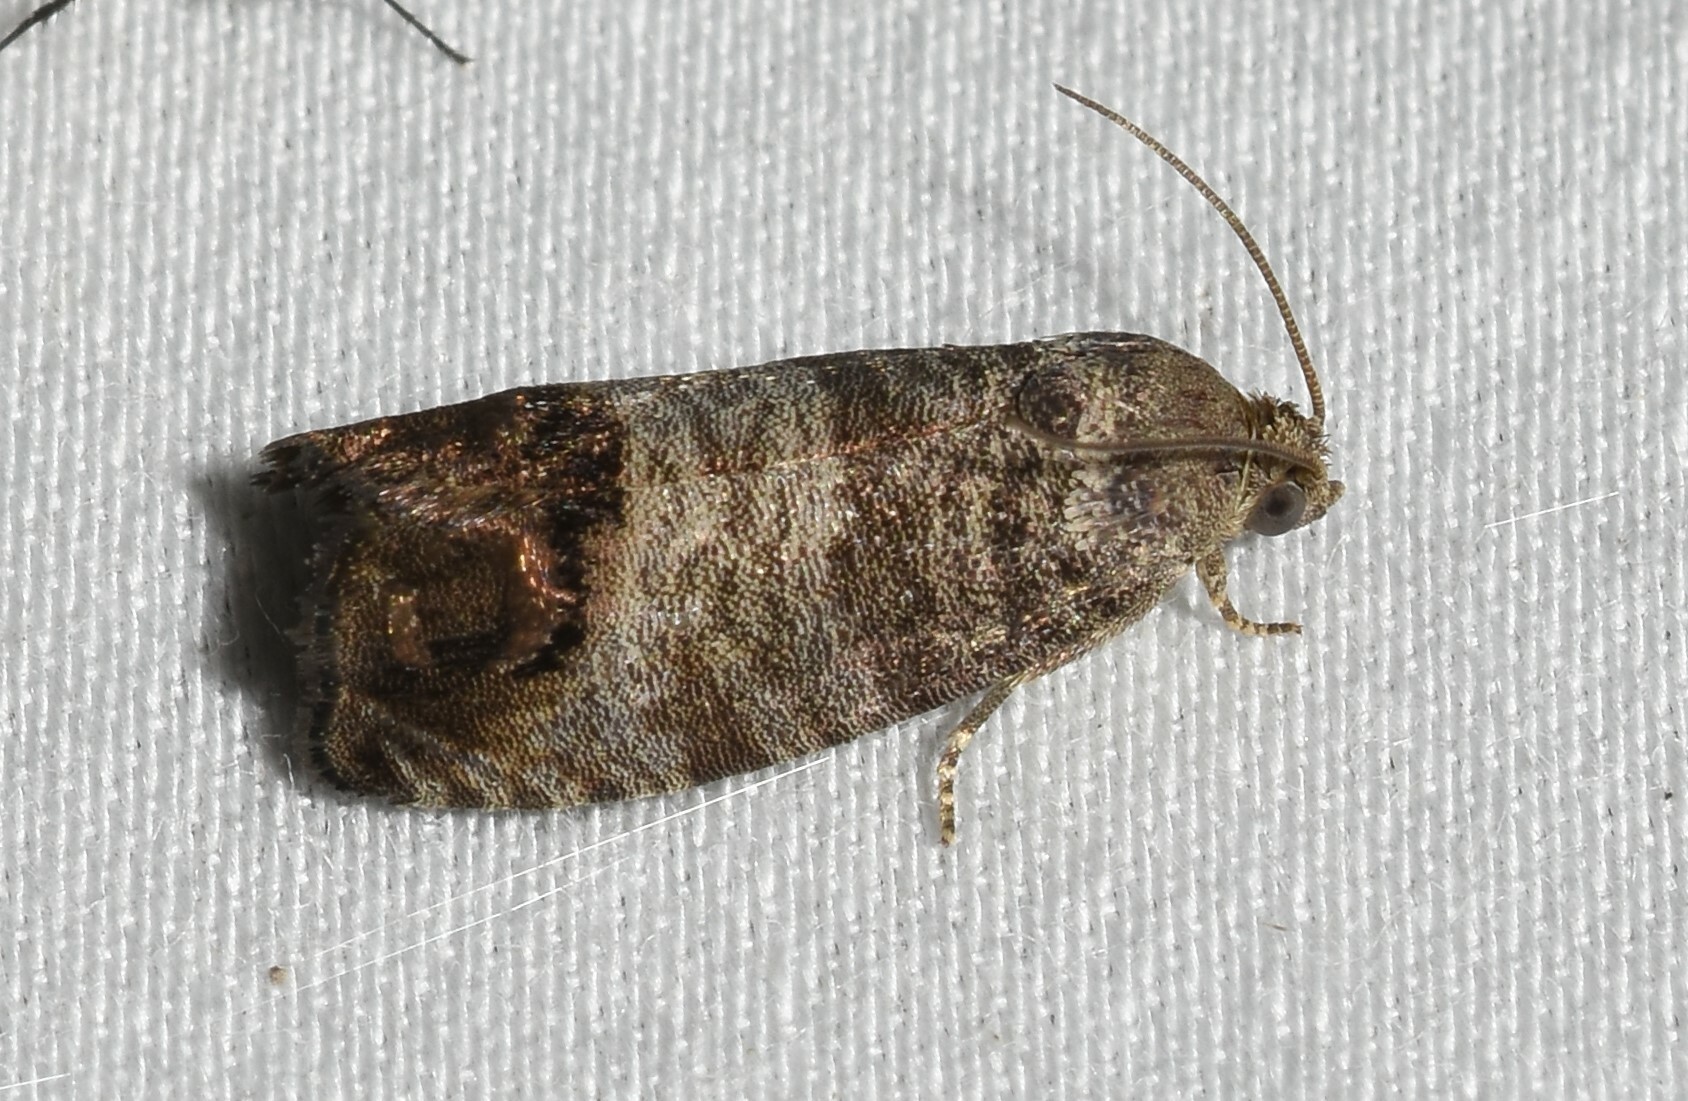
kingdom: Animalia
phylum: Arthropoda
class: Insecta
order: Lepidoptera
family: Tortricidae
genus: Cydia
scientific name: Cydia pomonella
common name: Codling moth
